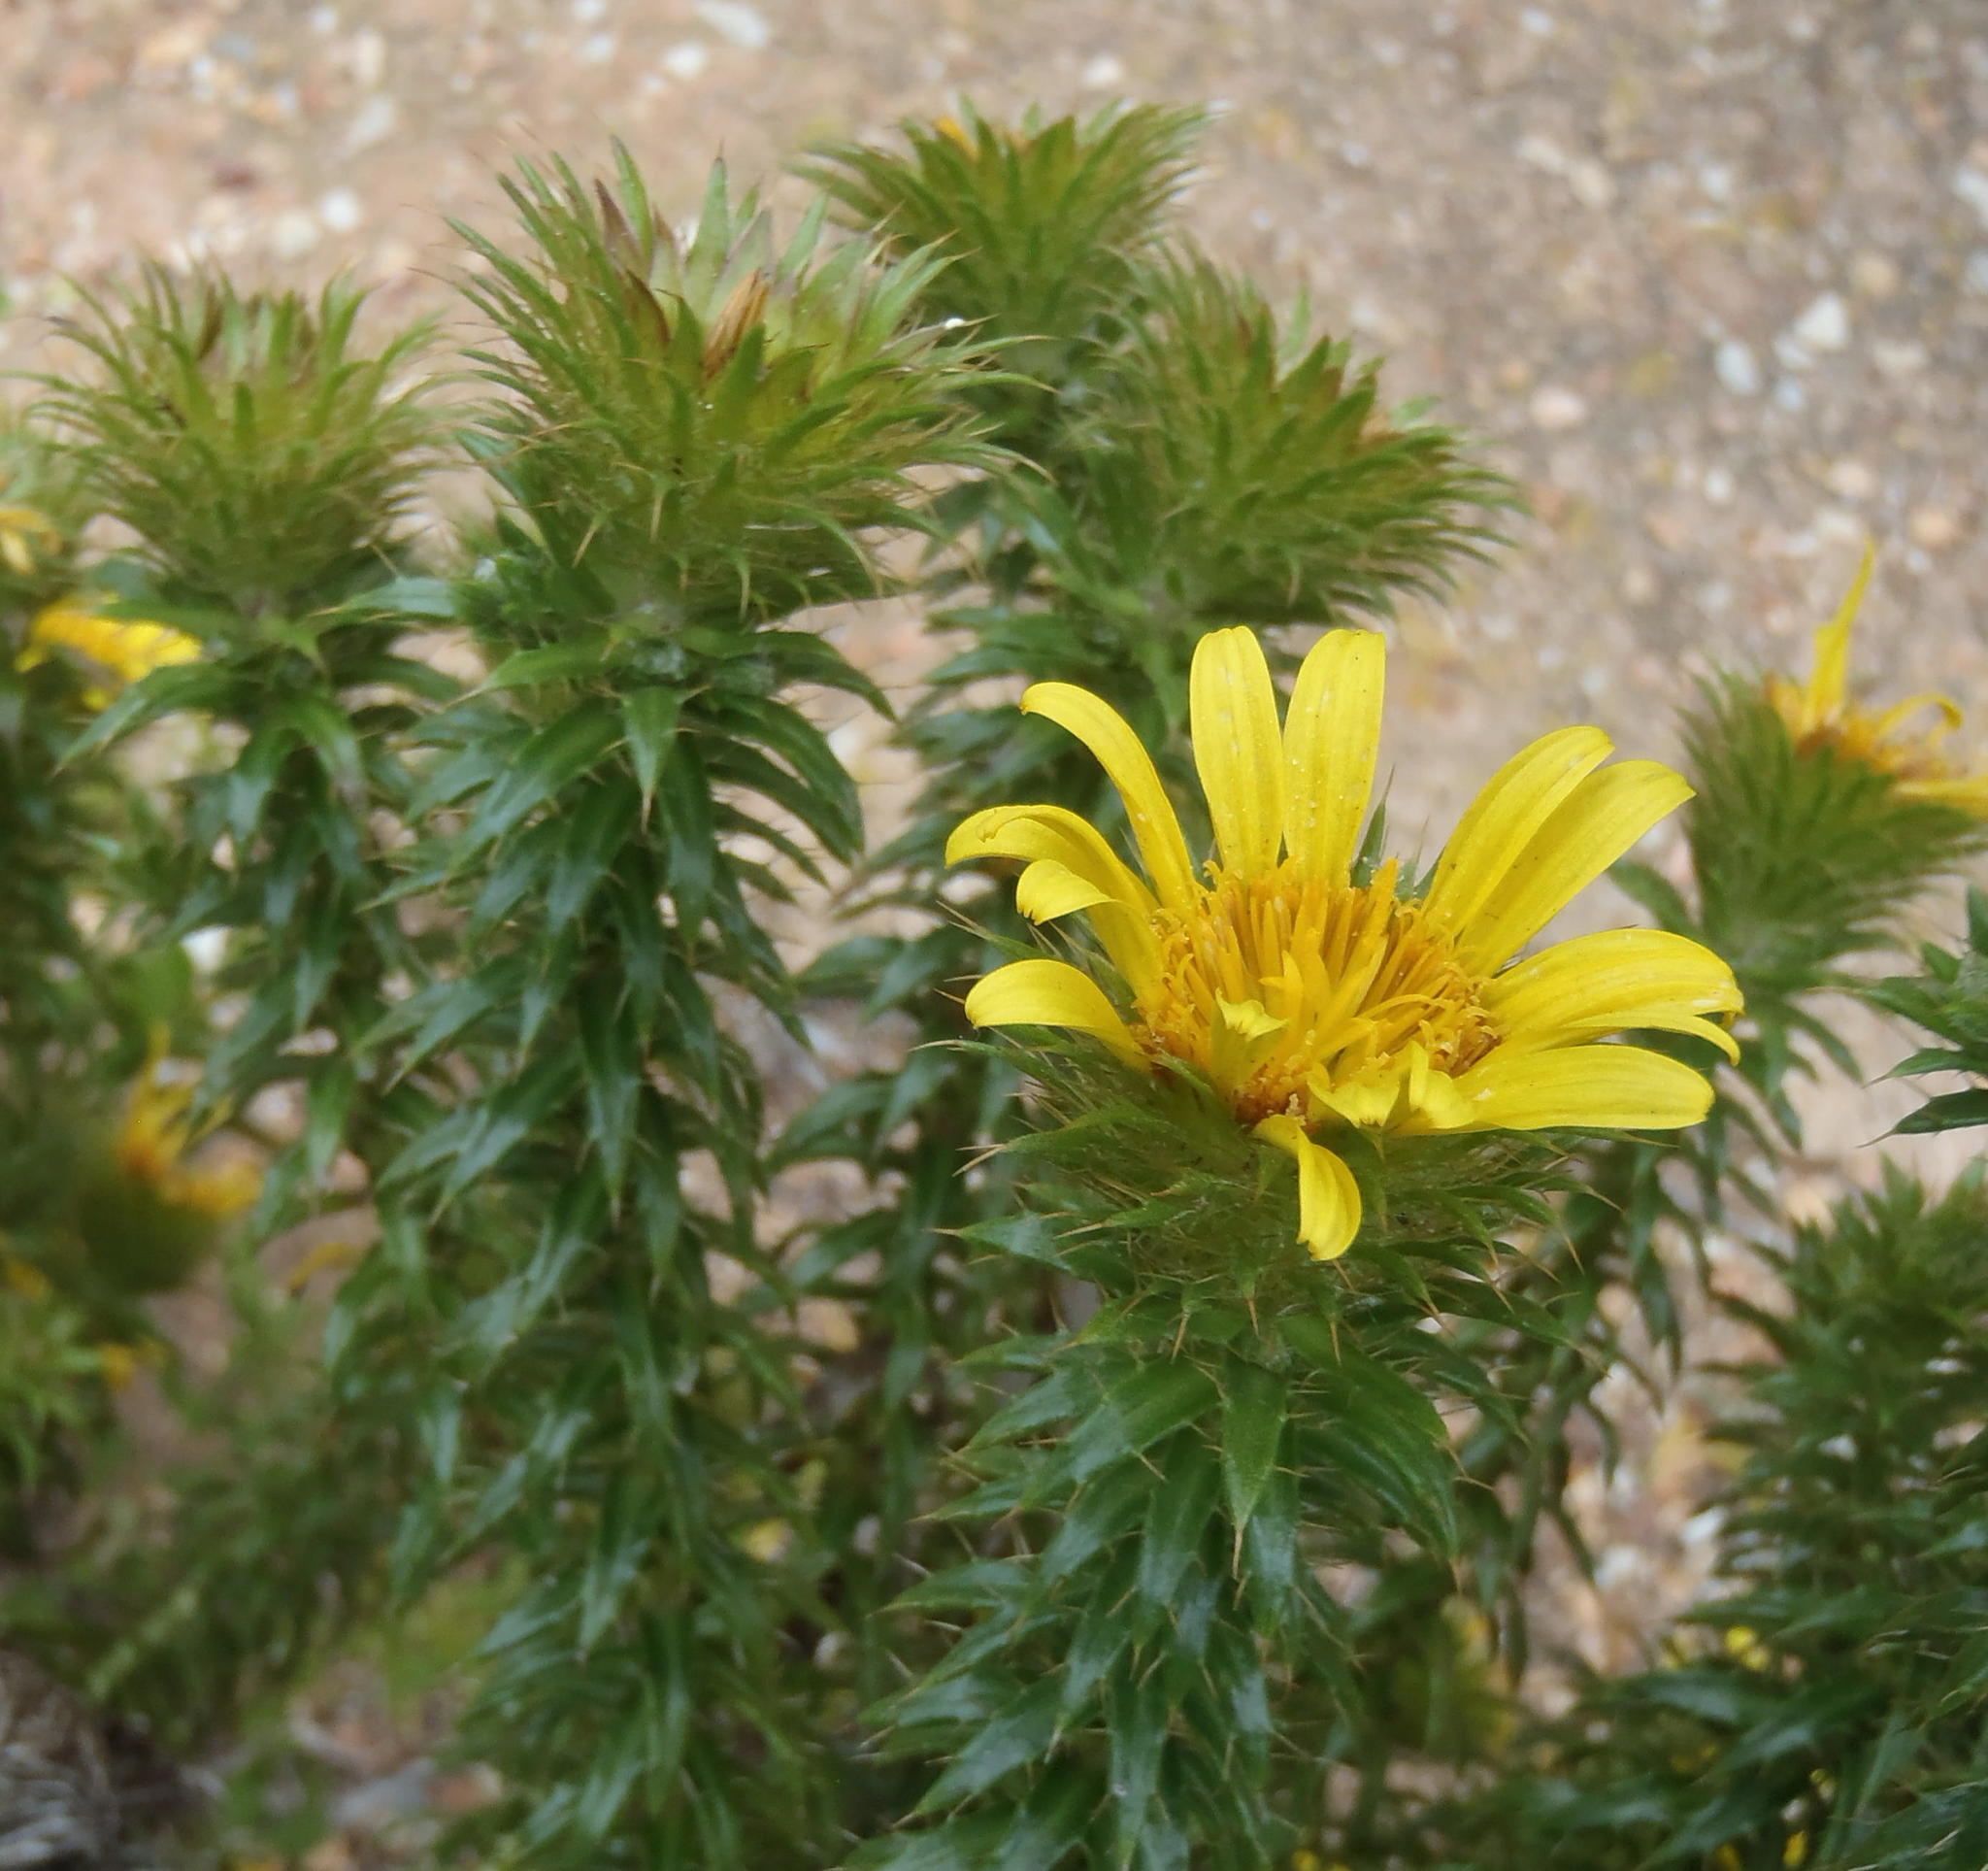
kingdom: Plantae
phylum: Tracheophyta
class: Magnoliopsida
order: Asterales
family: Asteraceae
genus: Cullumia
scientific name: Cullumia carlinoides
